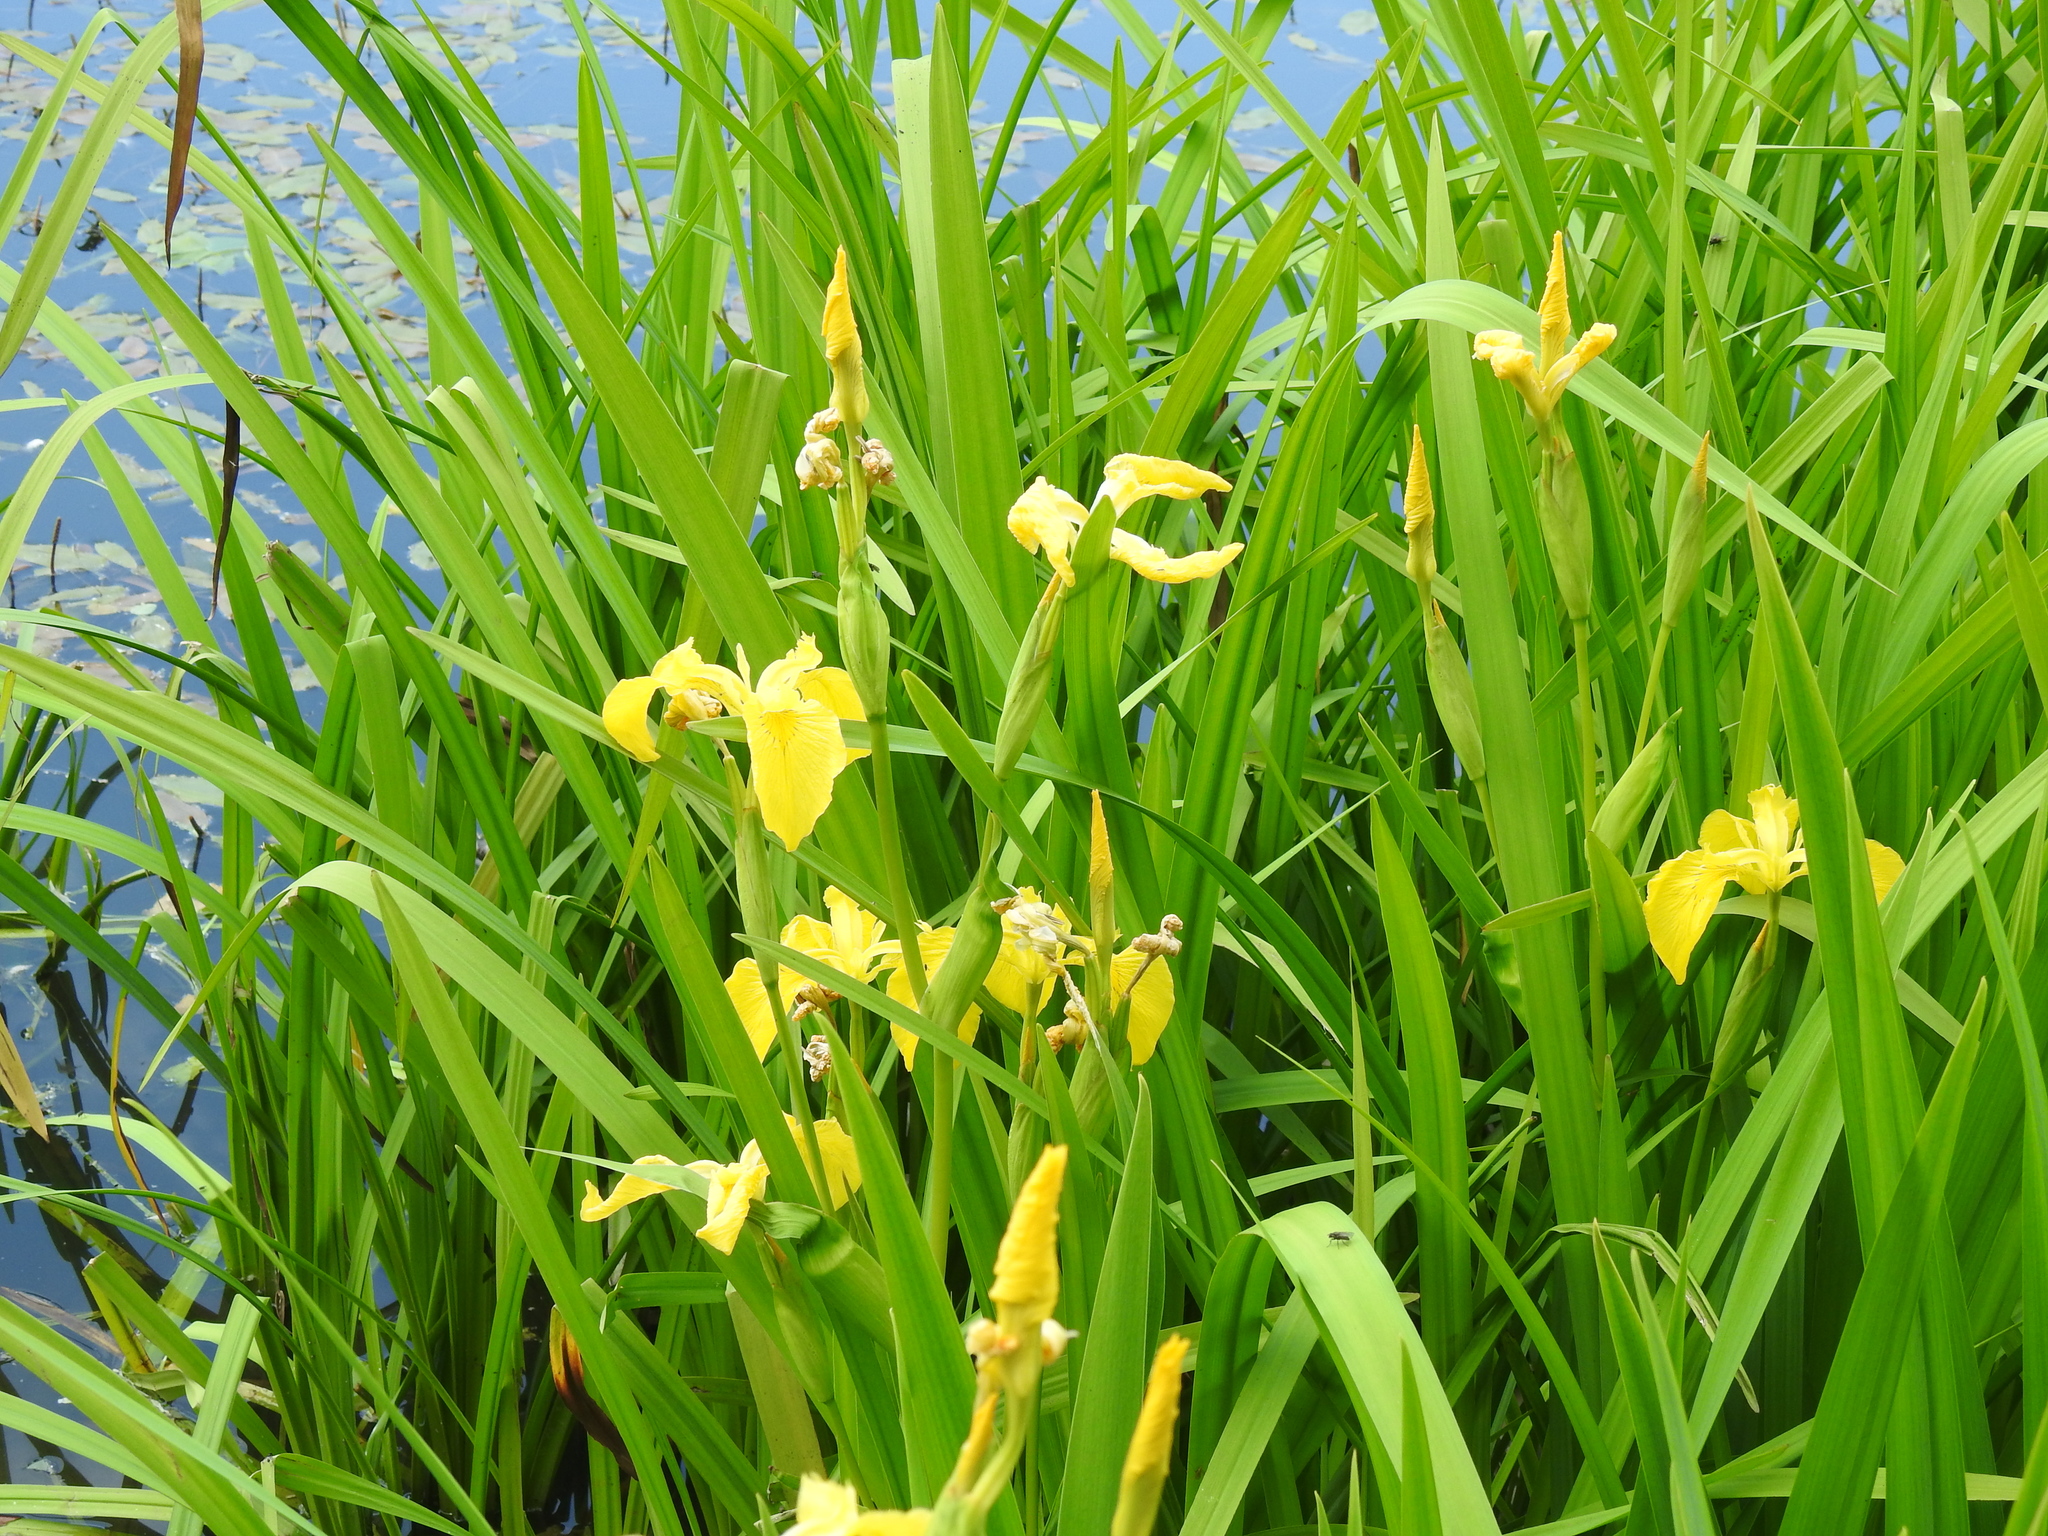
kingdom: Plantae
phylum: Tracheophyta
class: Liliopsida
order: Asparagales
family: Iridaceae
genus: Iris
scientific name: Iris pseudacorus
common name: Yellow flag
